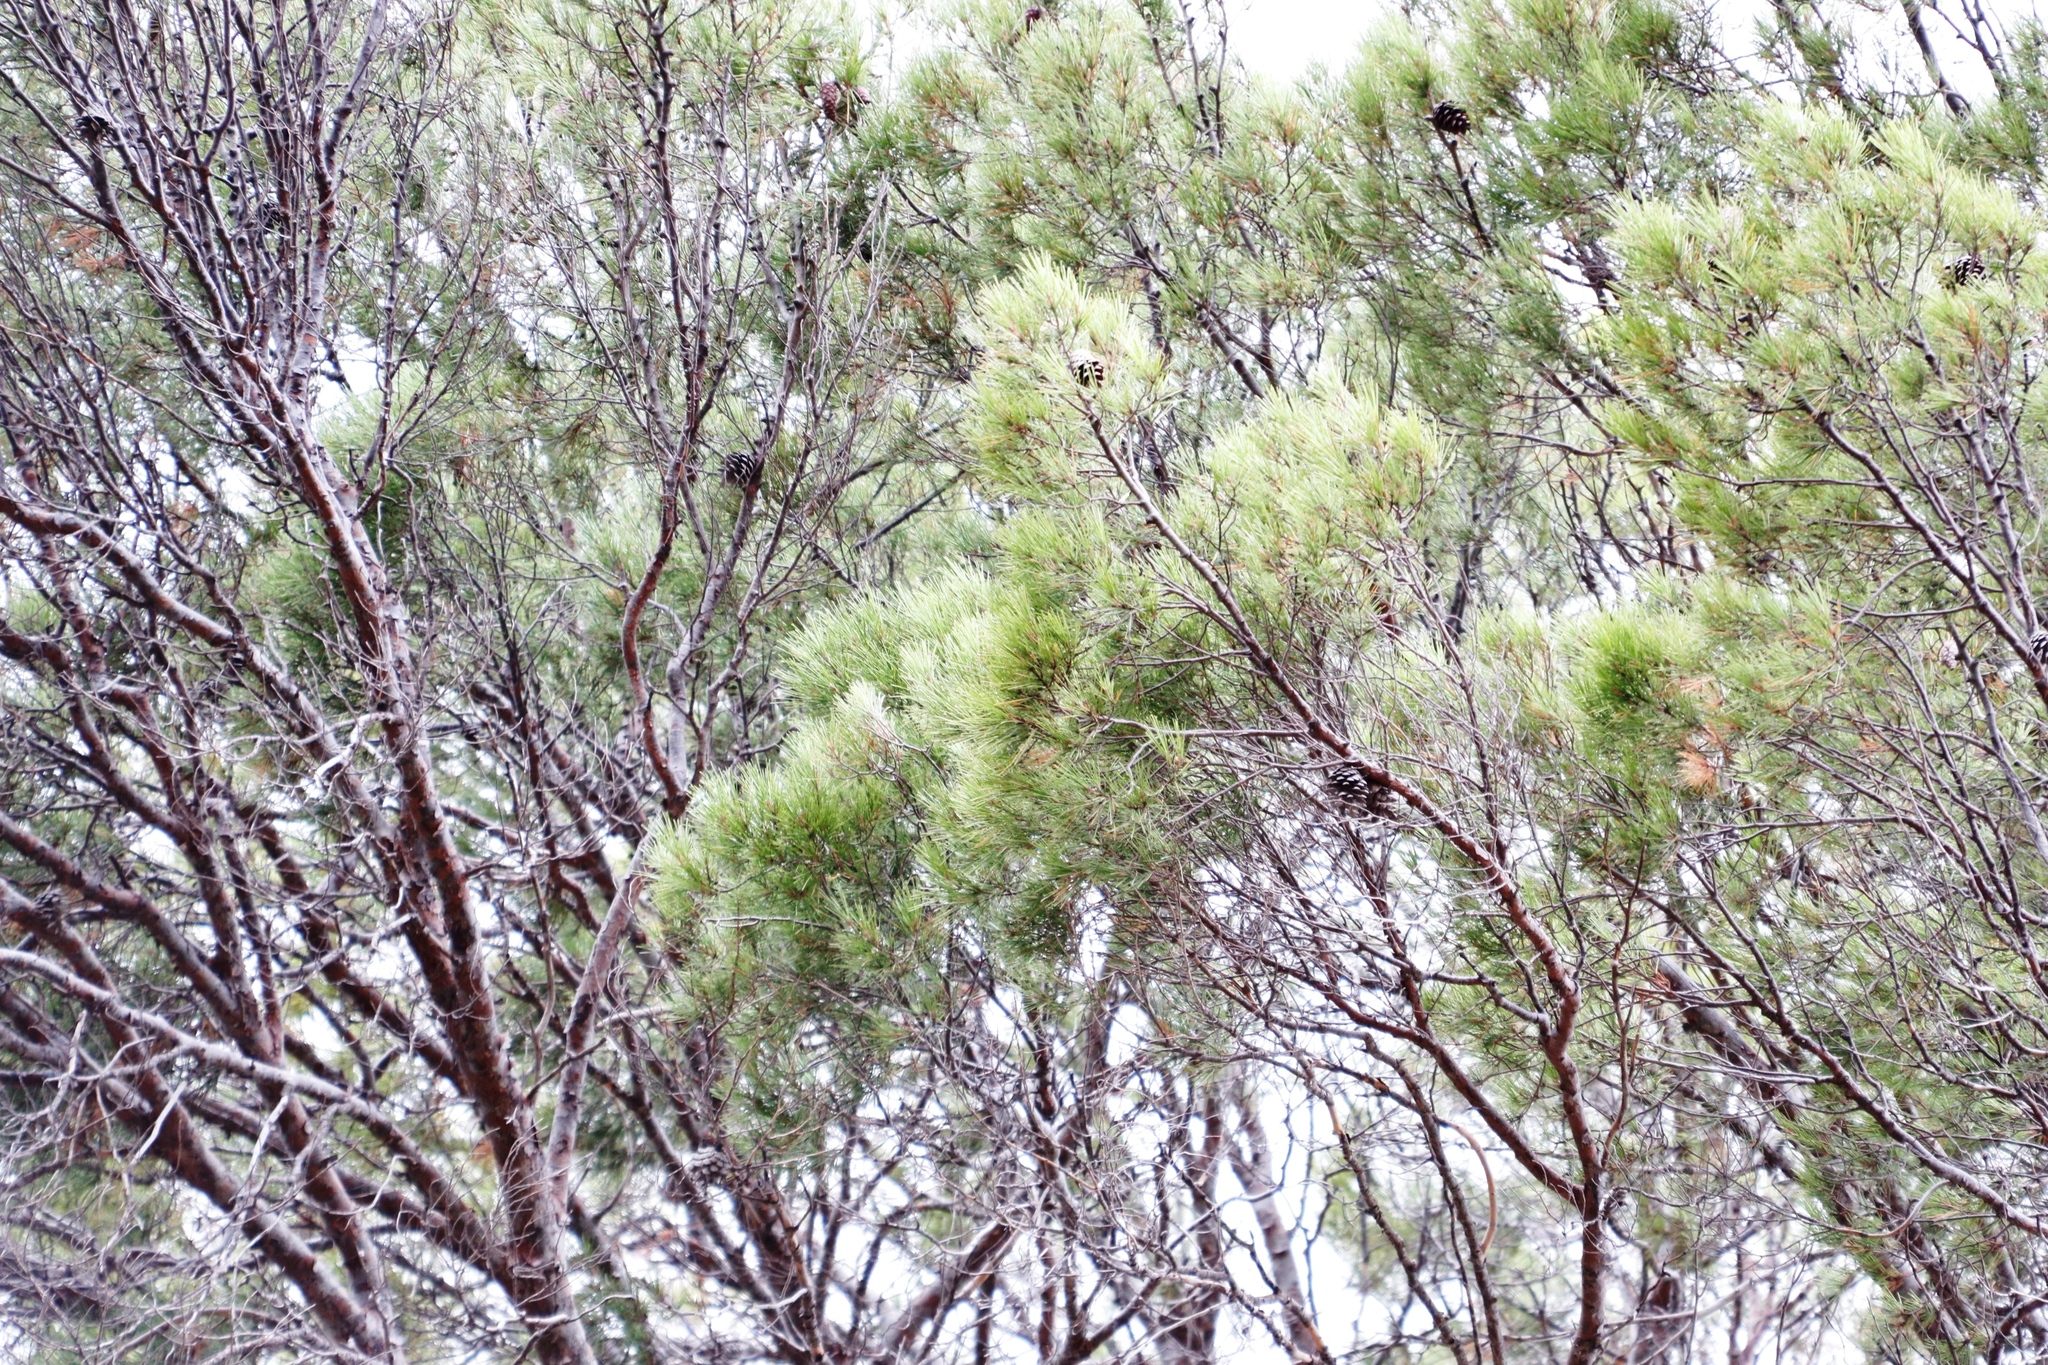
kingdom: Plantae
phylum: Tracheophyta
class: Pinopsida
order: Pinales
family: Pinaceae
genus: Pinus
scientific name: Pinus halepensis
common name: Aleppo pine
